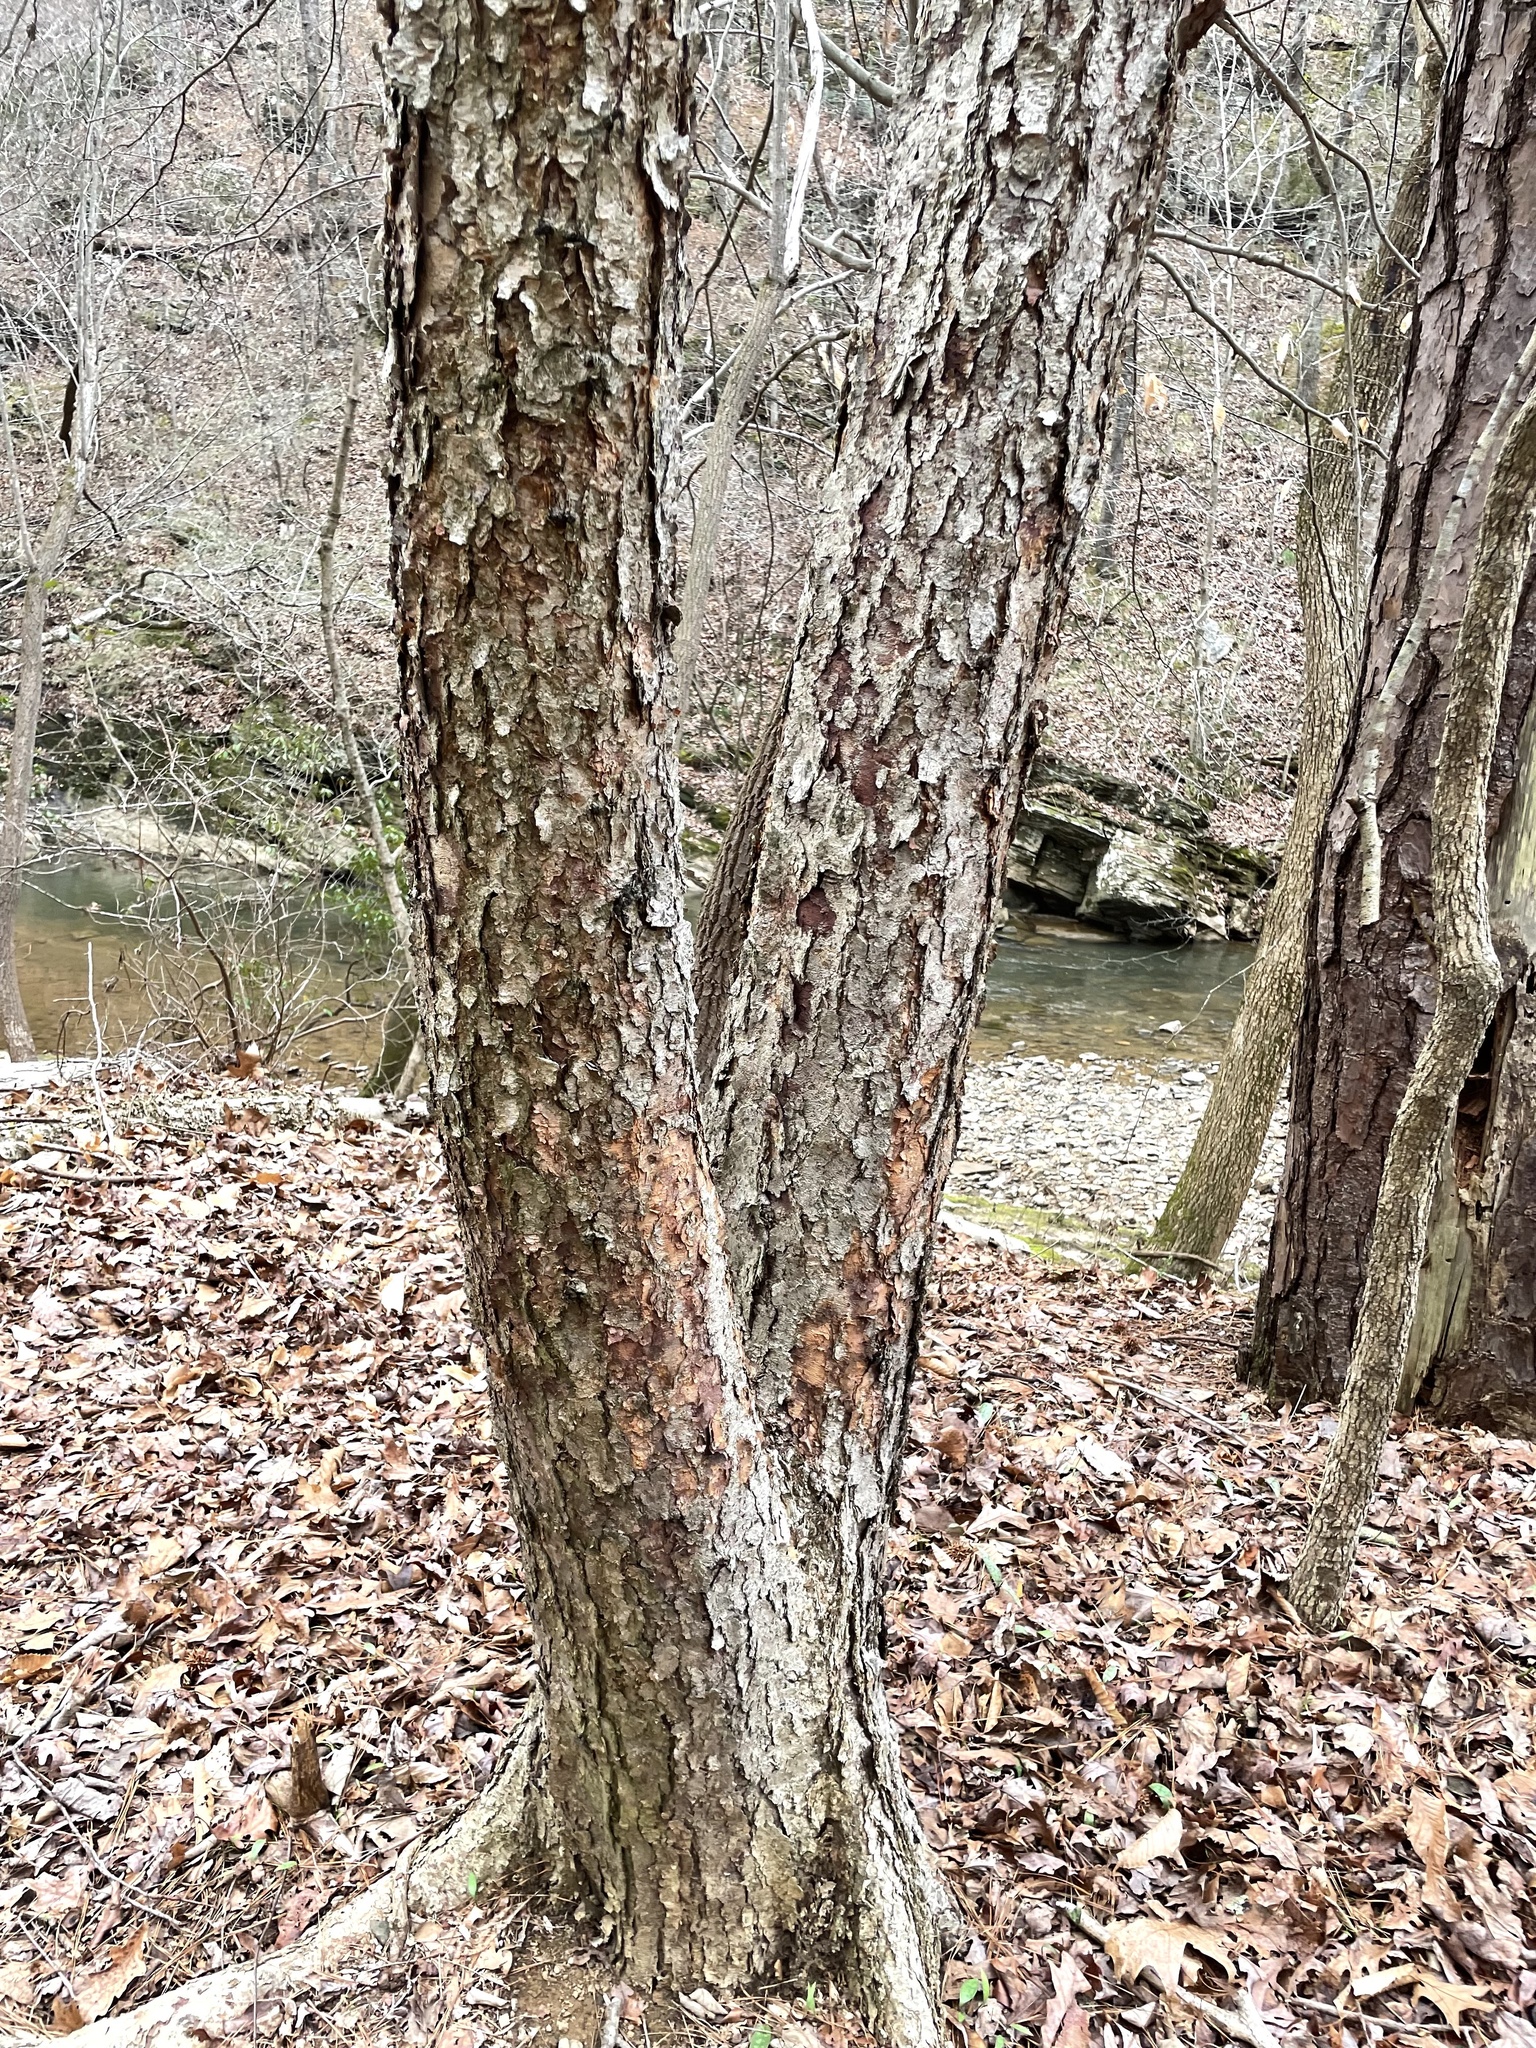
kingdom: Plantae
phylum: Tracheophyta
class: Magnoliopsida
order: Fagales
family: Betulaceae
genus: Betula
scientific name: Betula nigra
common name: Black birch
